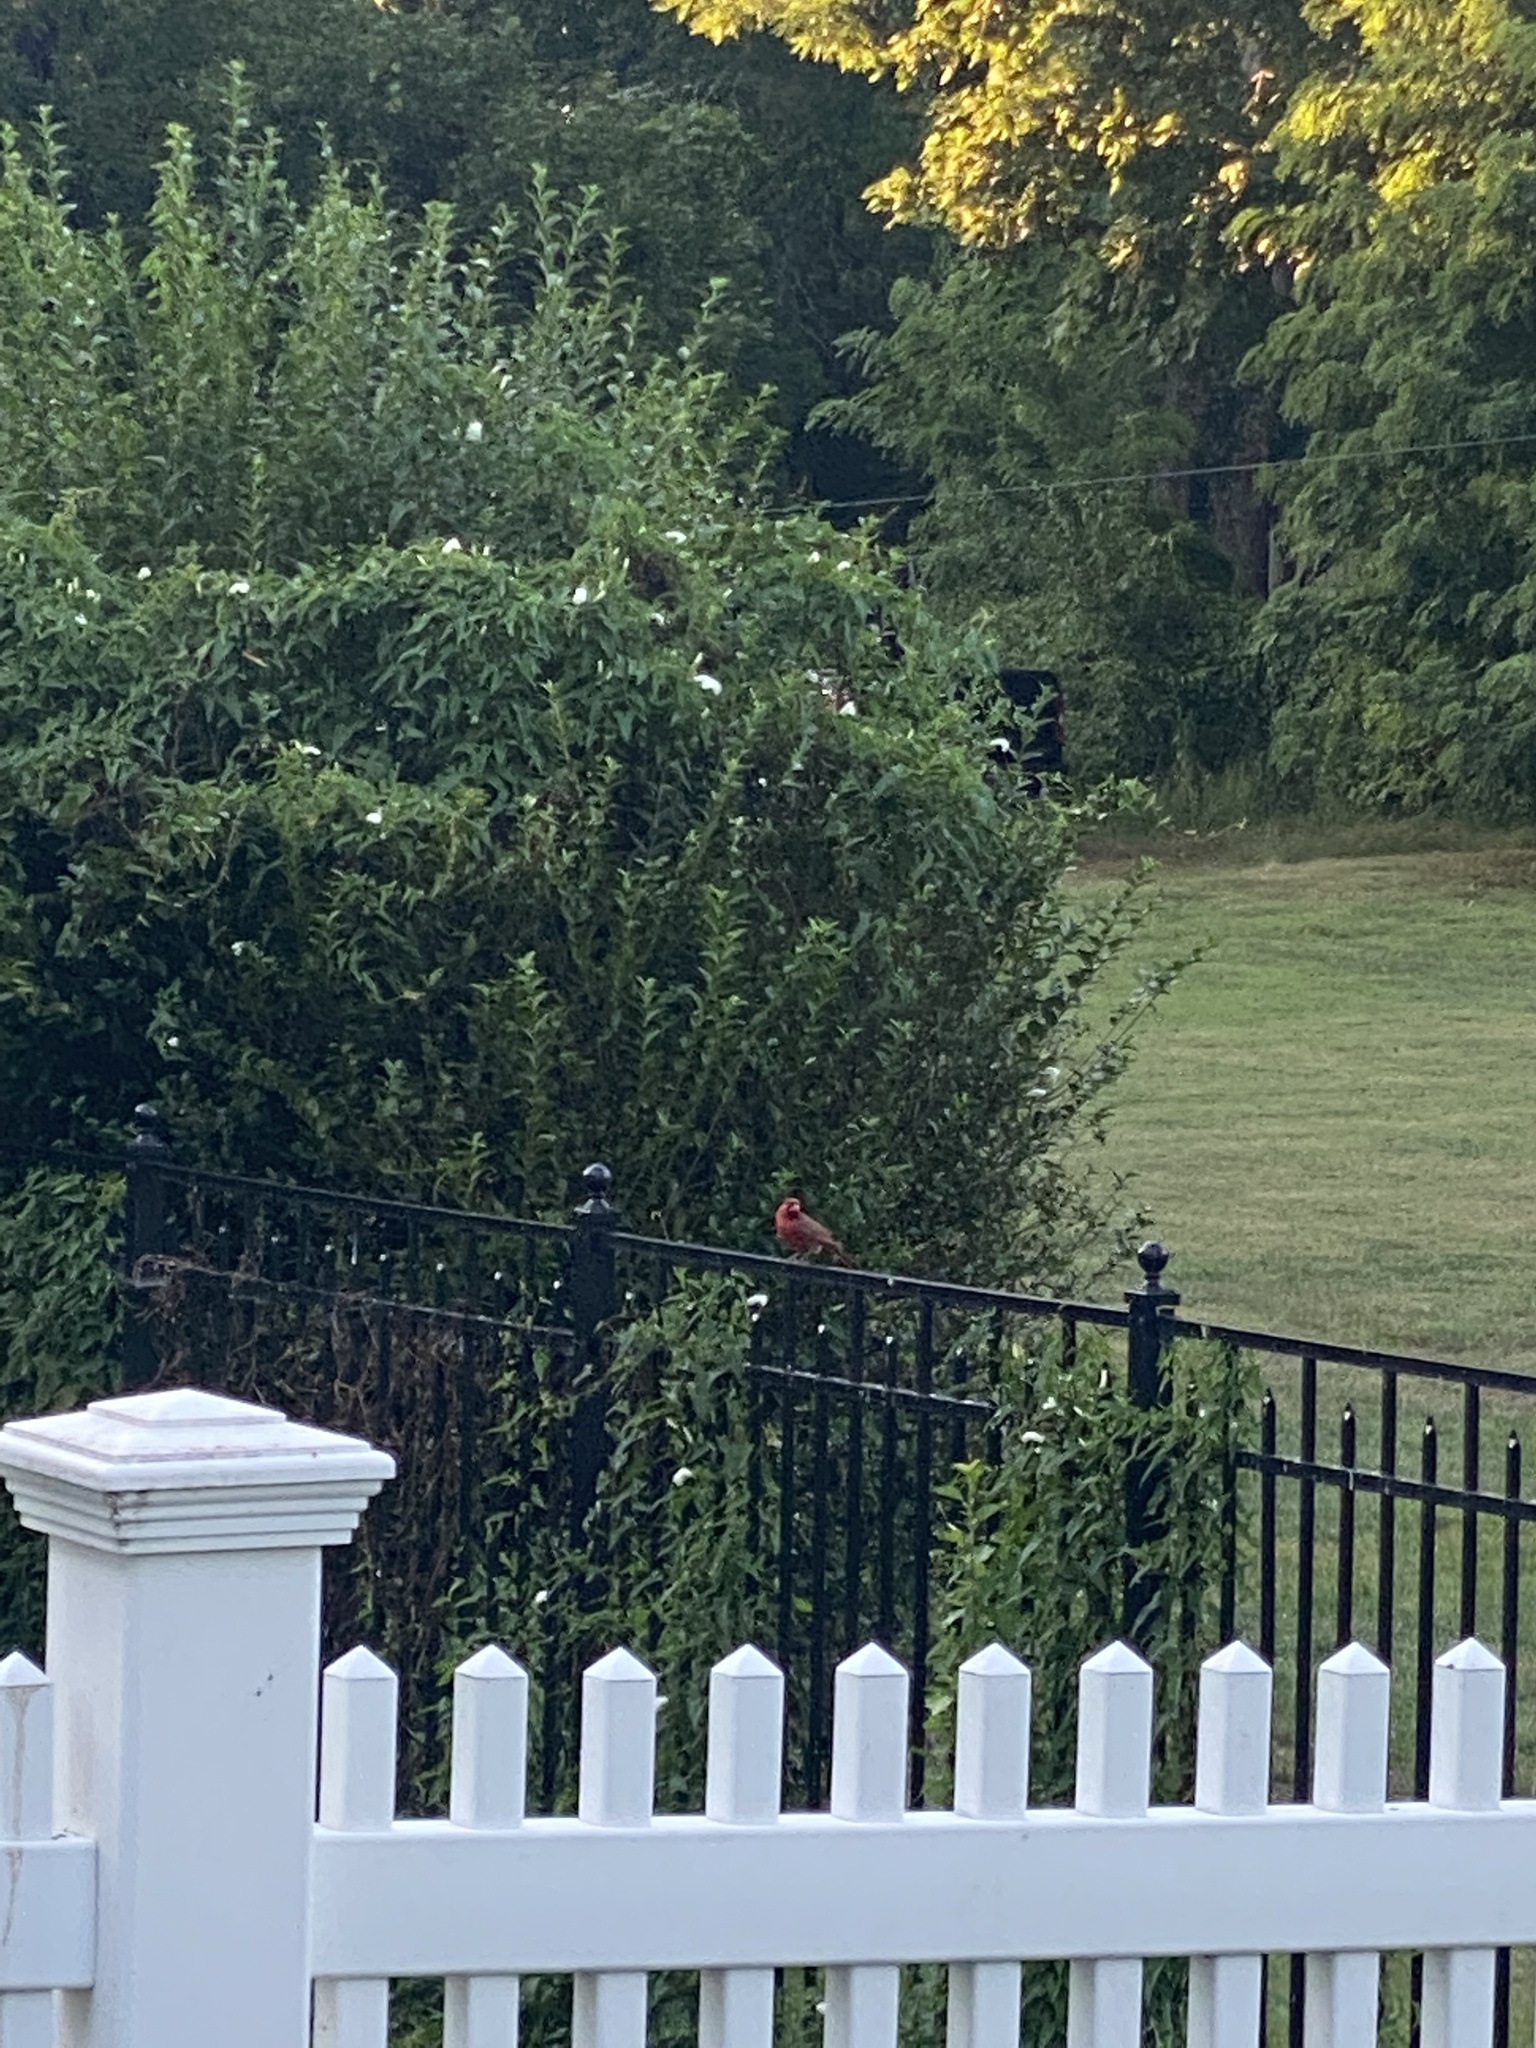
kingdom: Animalia
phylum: Chordata
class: Aves
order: Passeriformes
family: Cardinalidae
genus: Cardinalis
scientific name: Cardinalis cardinalis
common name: Northern cardinal
